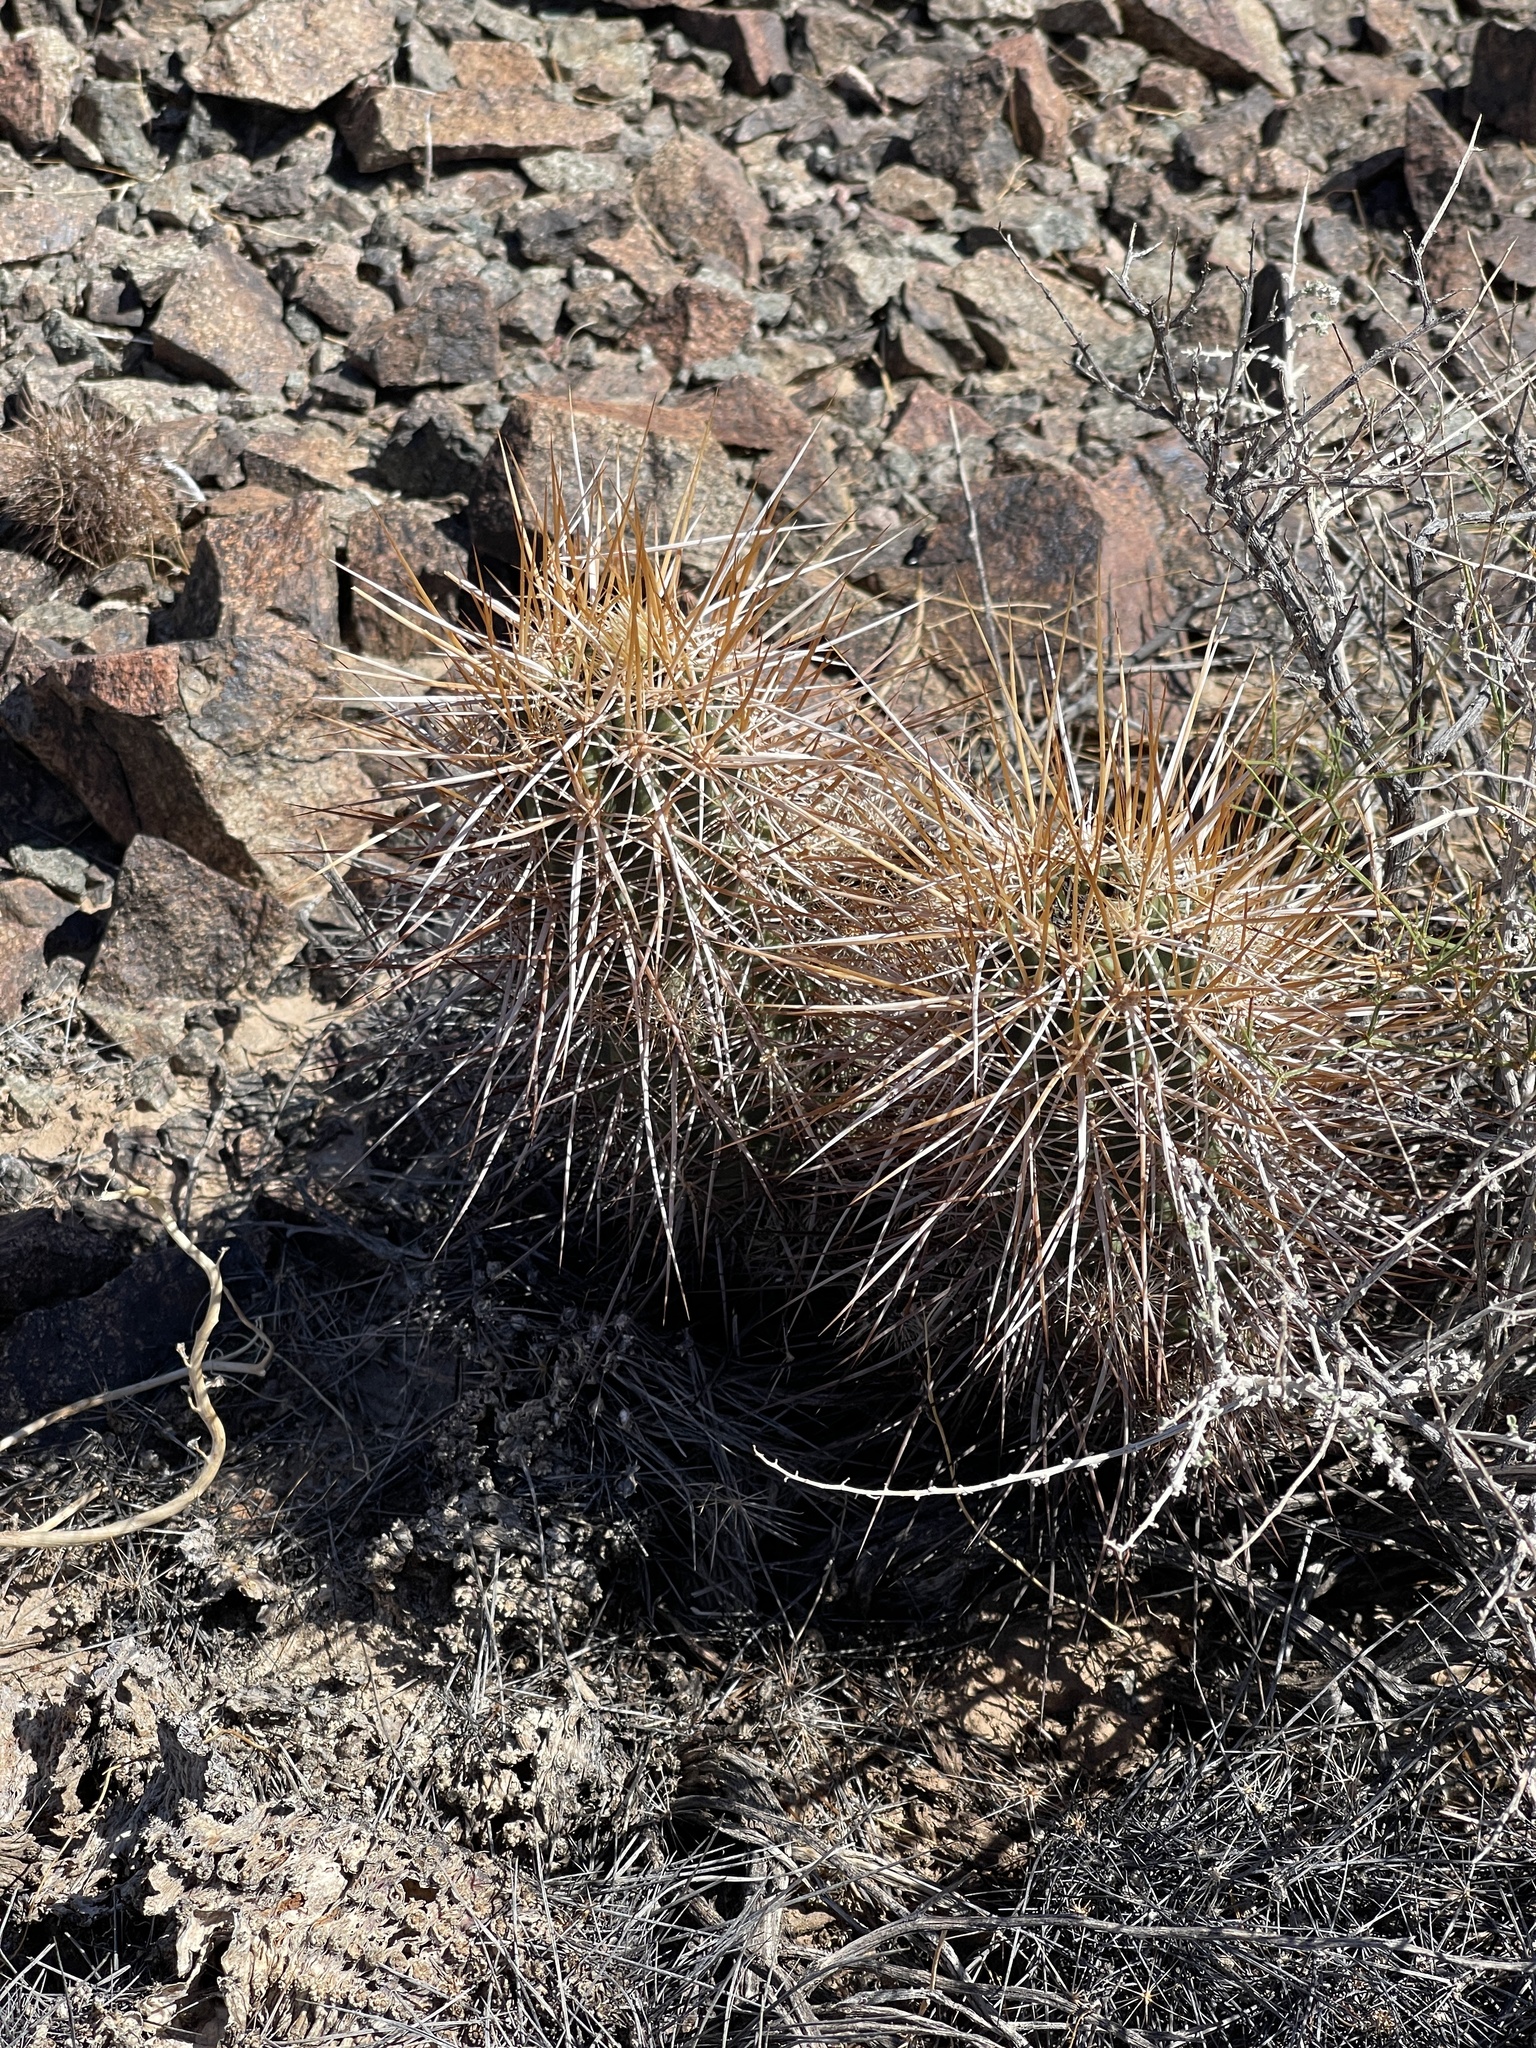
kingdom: Plantae
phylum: Tracheophyta
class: Magnoliopsida
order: Caryophyllales
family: Cactaceae
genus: Echinocereus
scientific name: Echinocereus engelmannii
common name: Engelmann's hedgehog cactus
